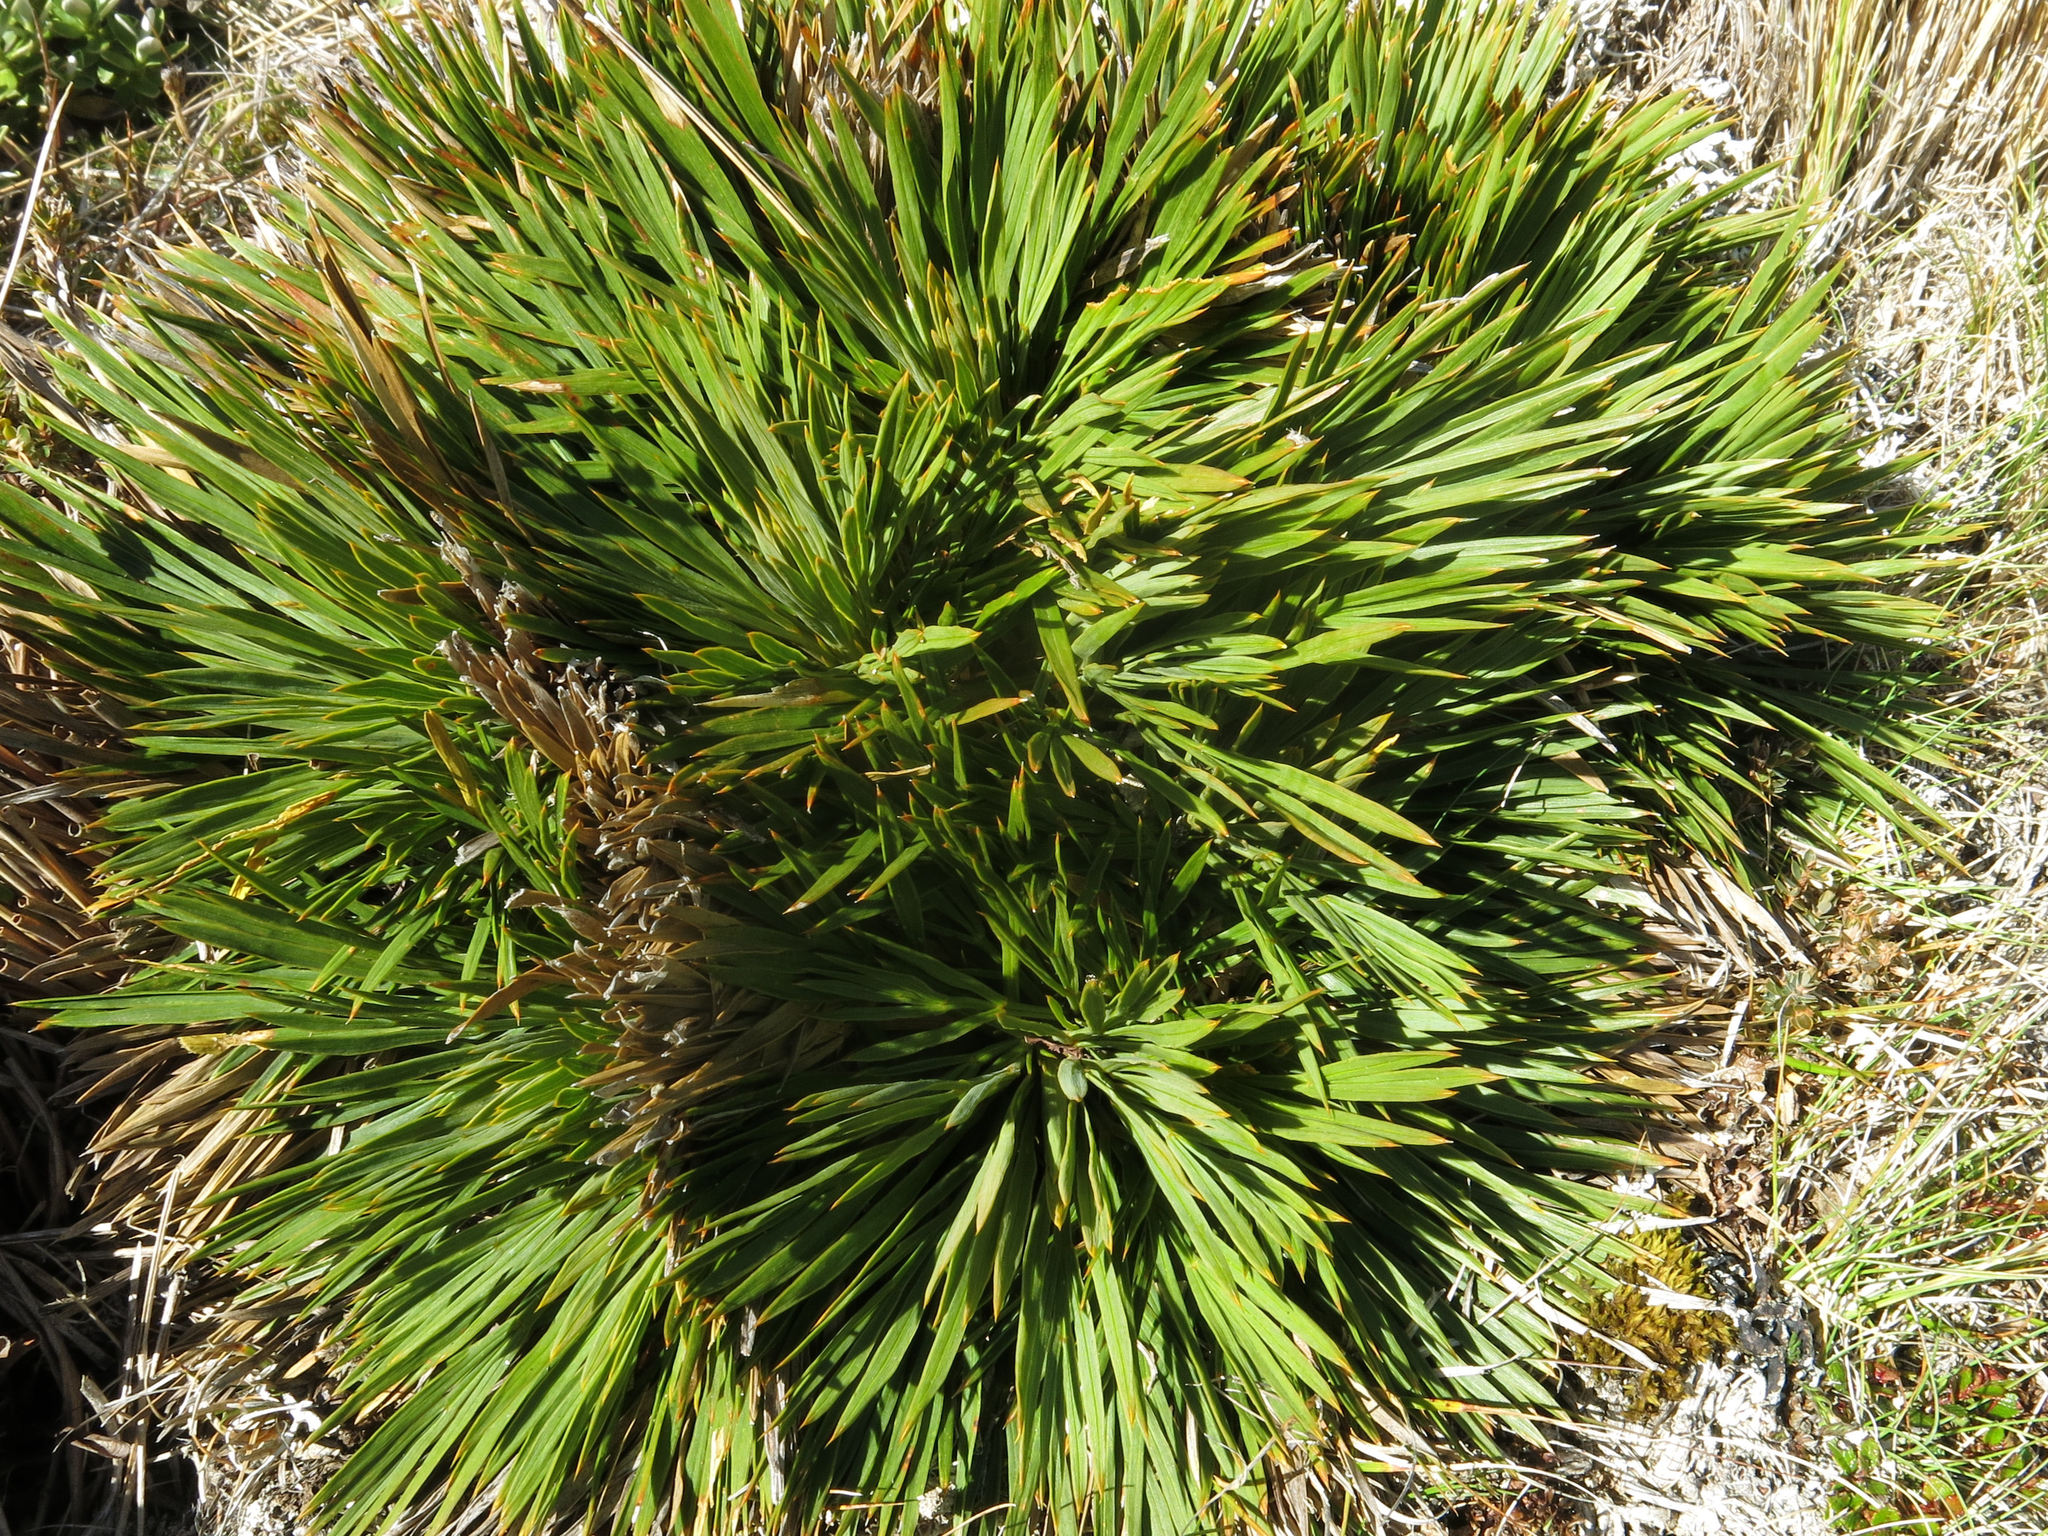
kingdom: Plantae
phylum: Tracheophyta
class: Magnoliopsida
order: Apiales
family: Apiaceae
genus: Aciphylla
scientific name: Aciphylla montana
